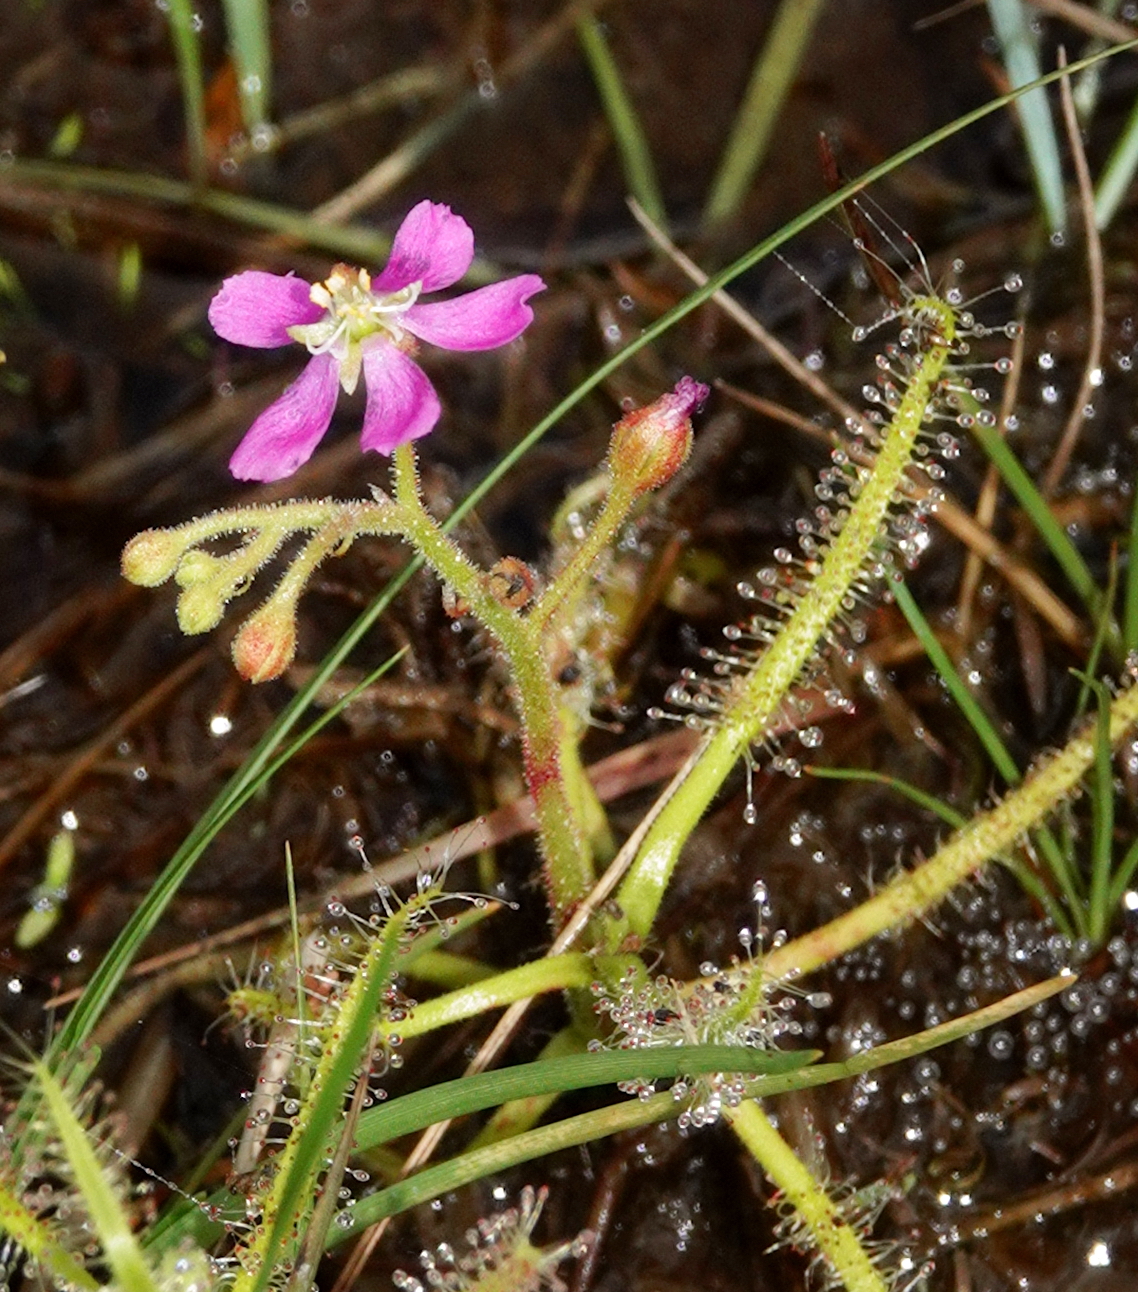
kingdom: Plantae
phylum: Tracheophyta
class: Magnoliopsida
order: Caryophyllales
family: Droseraceae
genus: Drosera
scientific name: Drosera indica
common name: Indian sundew
